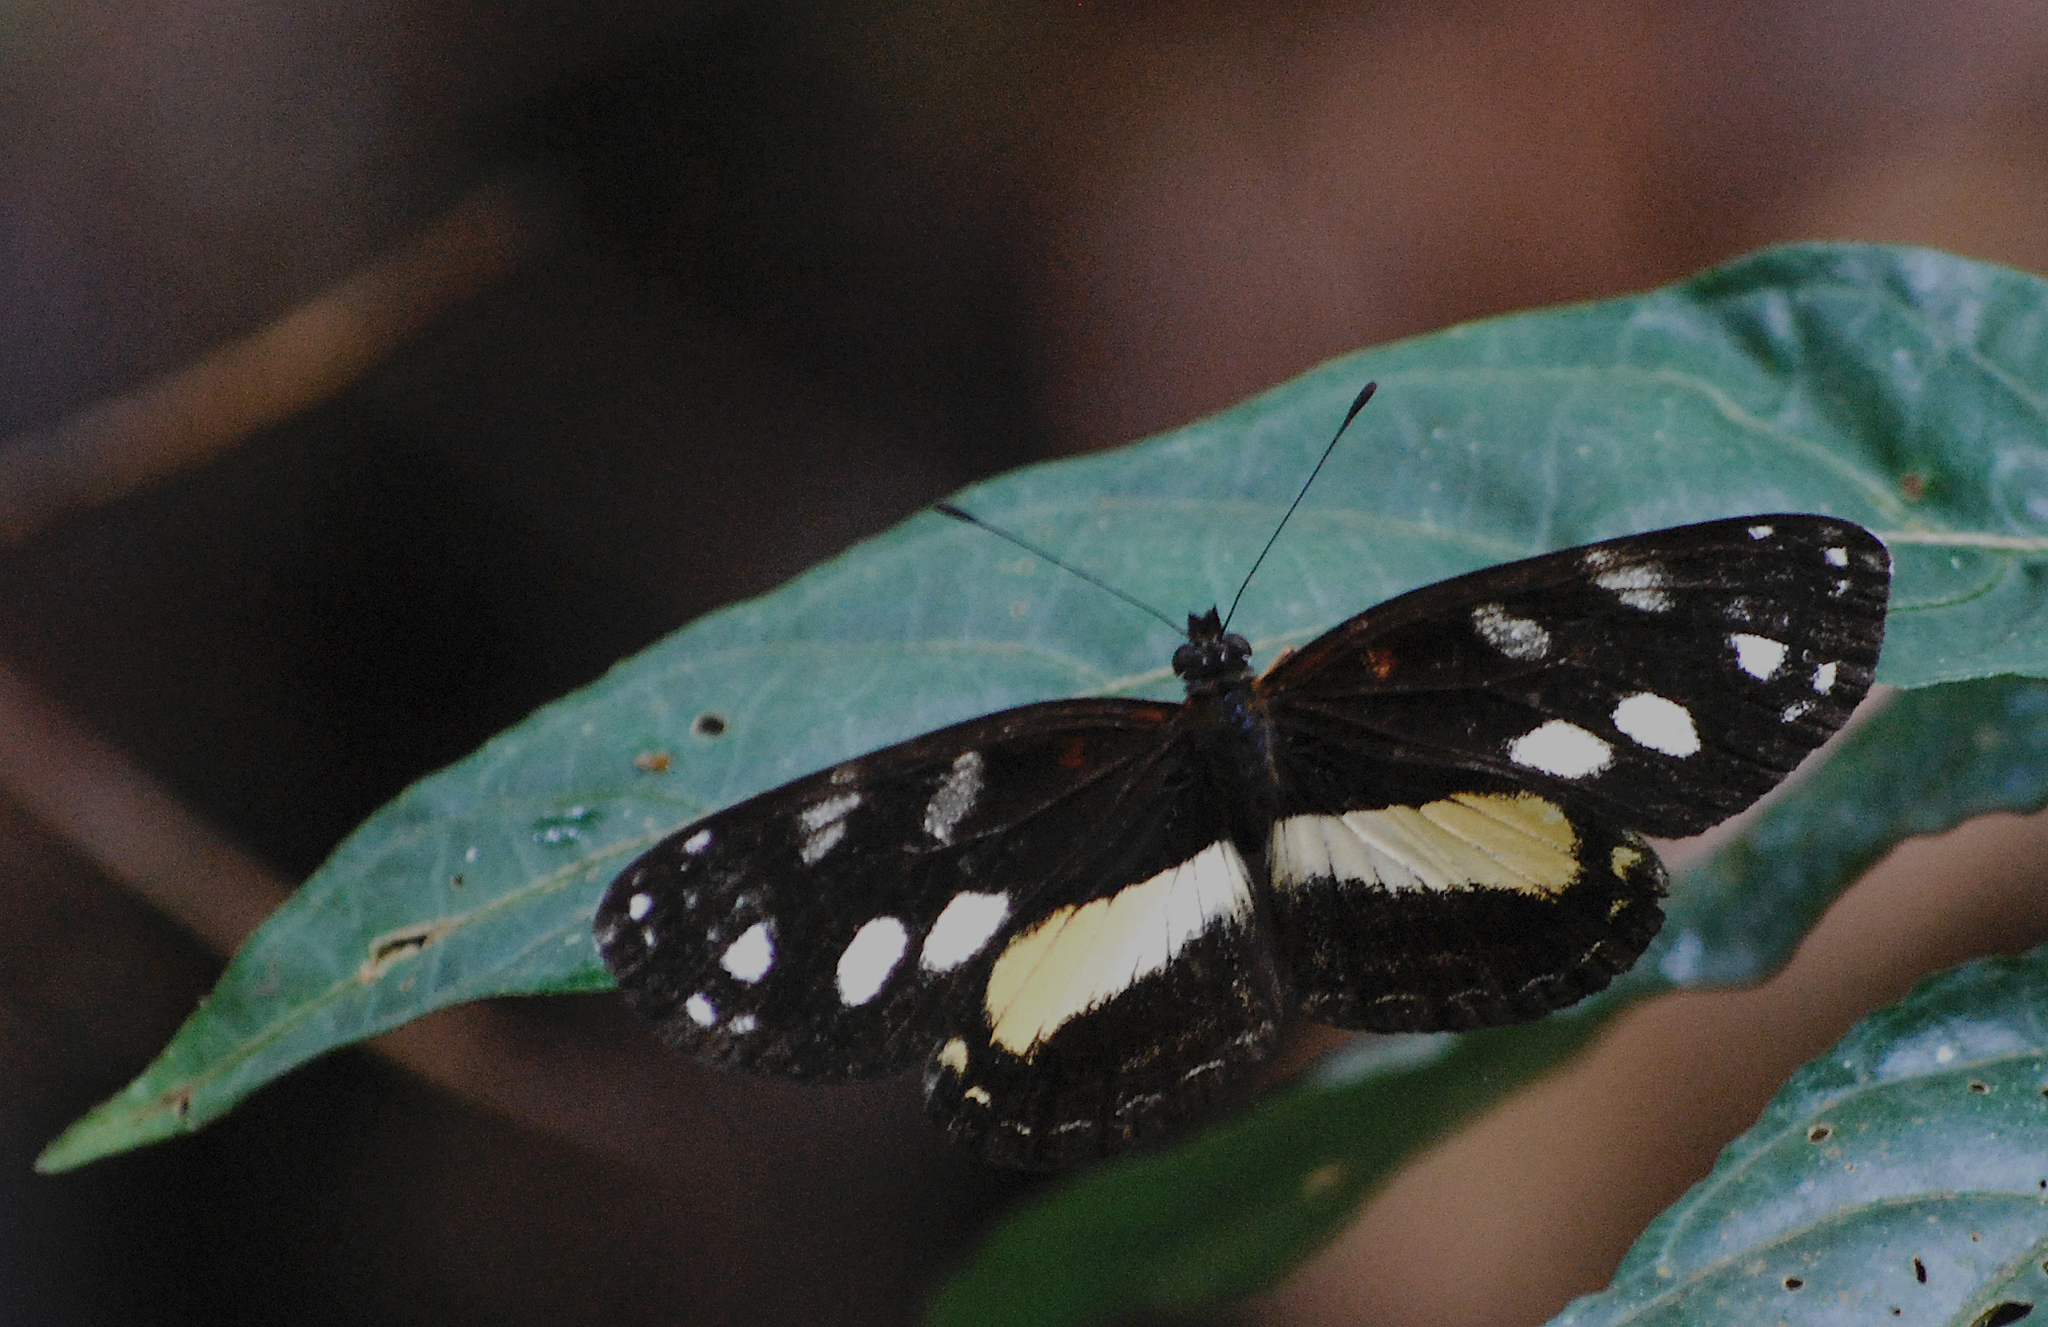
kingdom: Animalia
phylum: Arthropoda
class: Insecta
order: Lepidoptera
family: Nymphalidae
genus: Eresia
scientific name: Eresia polina
